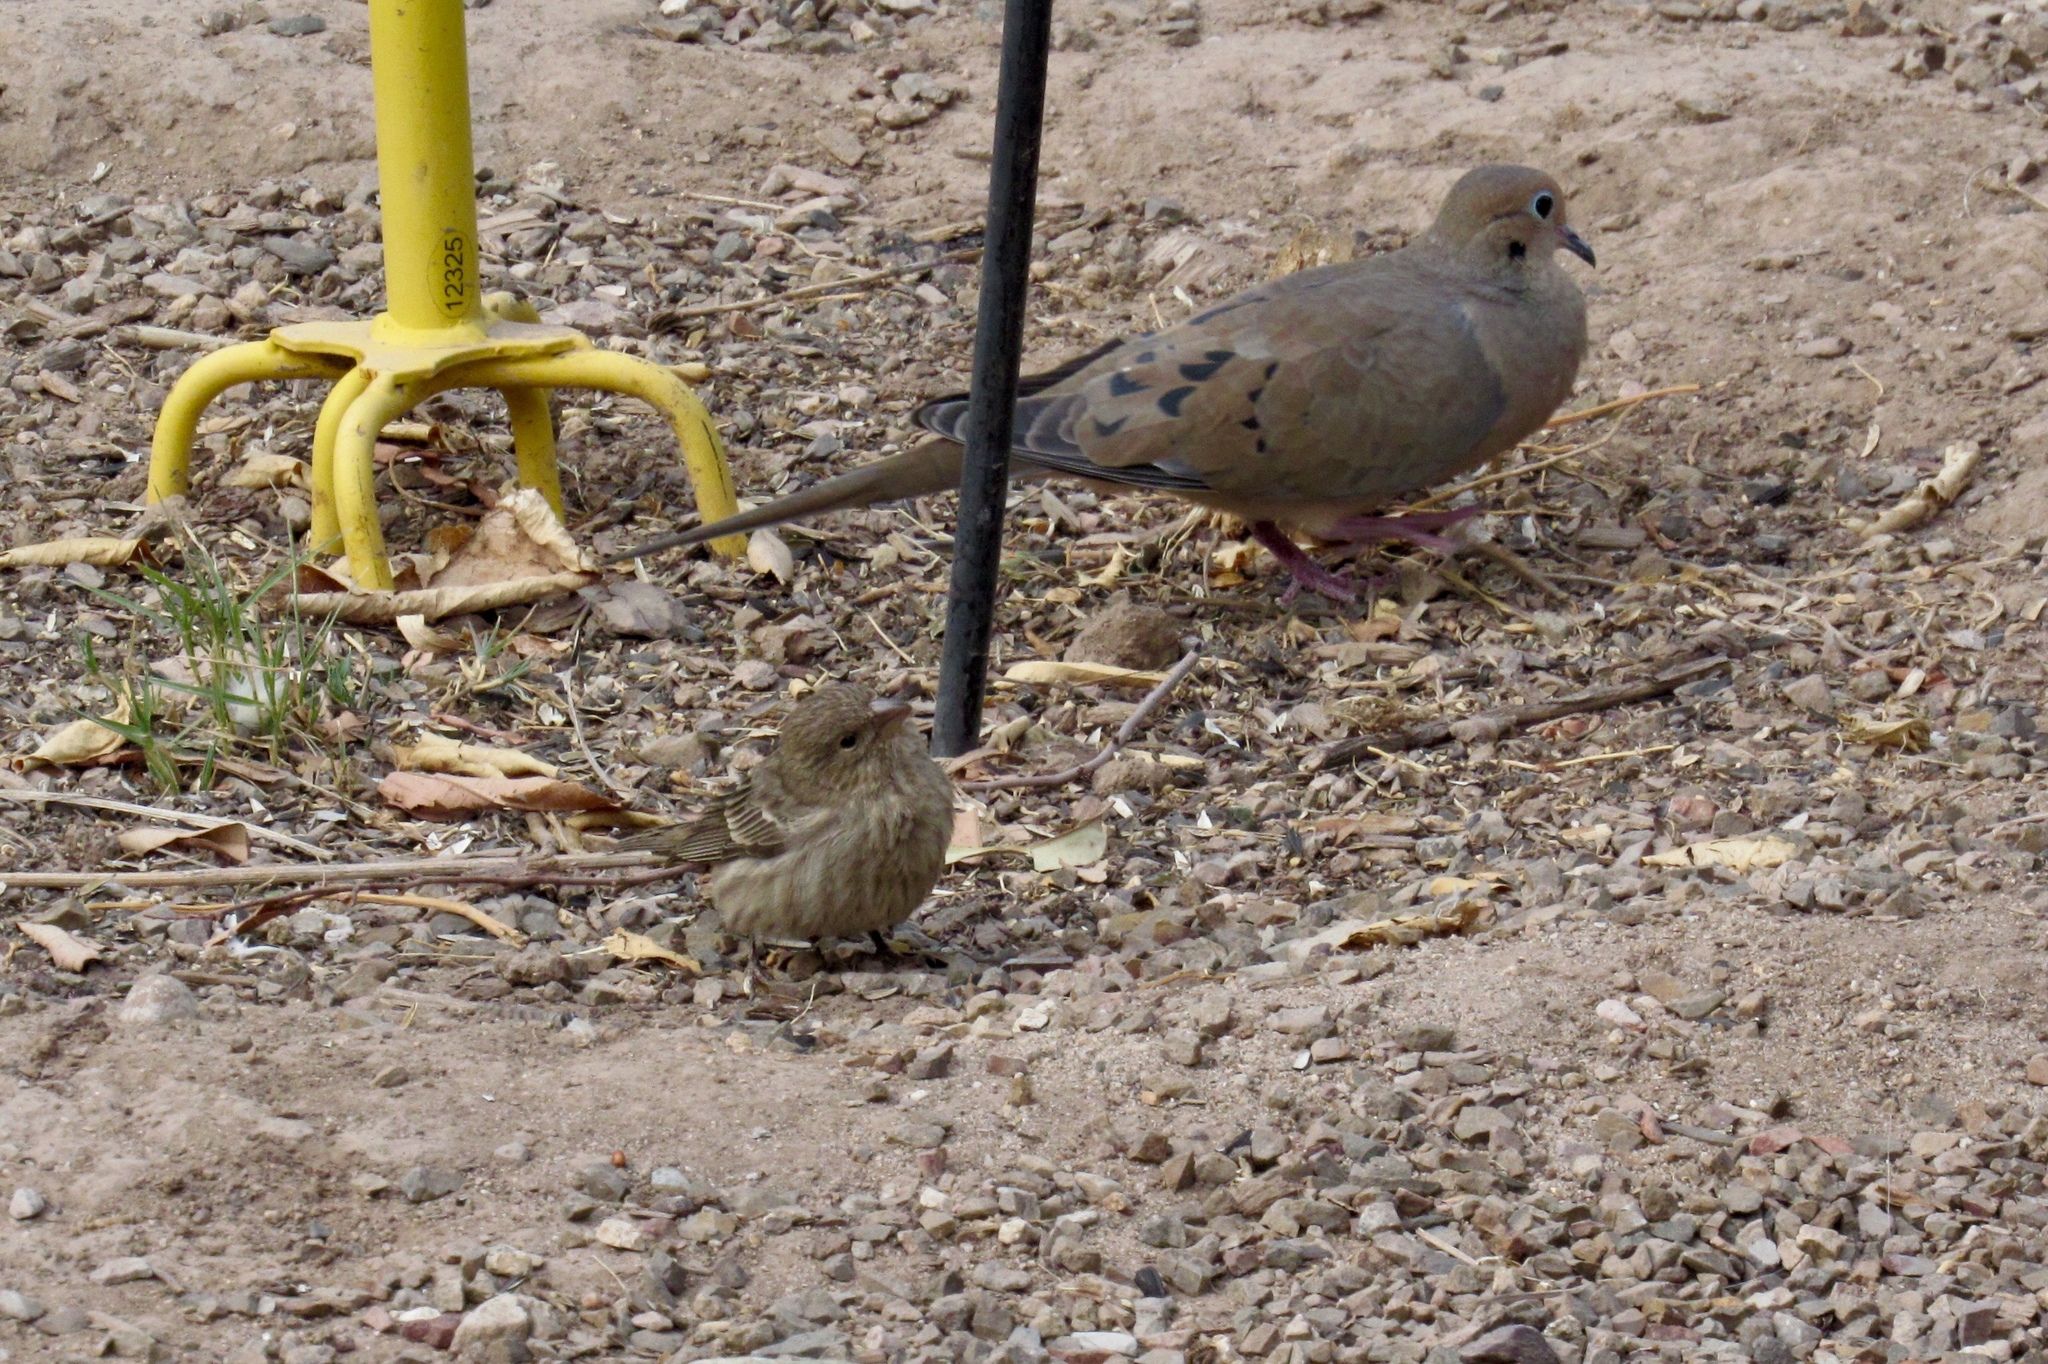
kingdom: Animalia
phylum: Chordata
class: Aves
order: Passeriformes
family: Fringillidae
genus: Haemorhous
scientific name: Haemorhous mexicanus
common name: House finch
